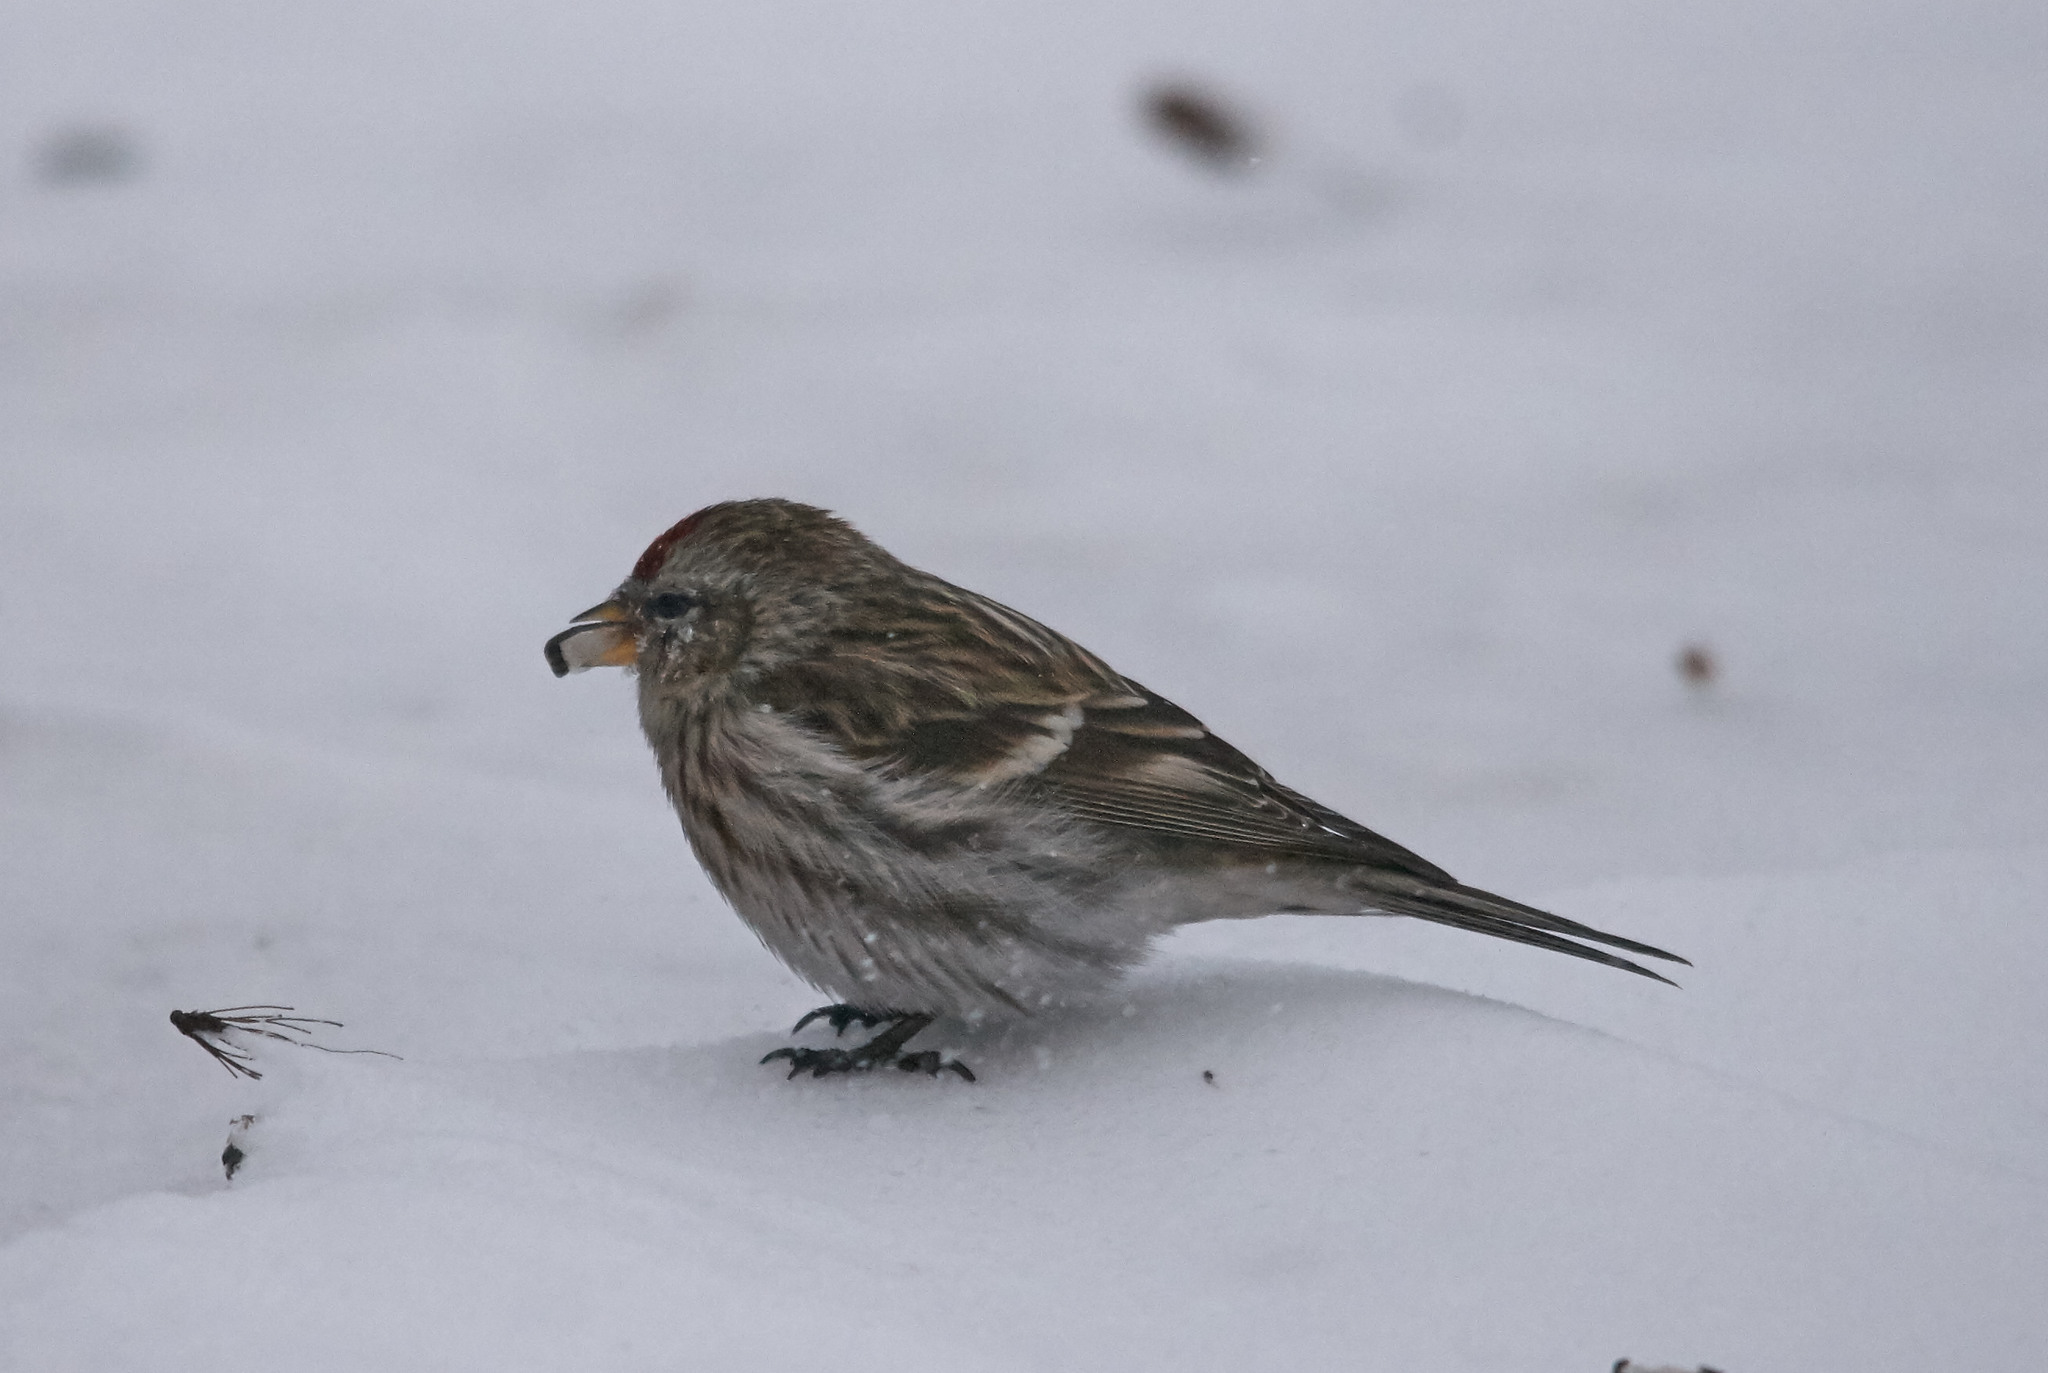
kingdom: Animalia
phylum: Chordata
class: Aves
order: Passeriformes
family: Fringillidae
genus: Acanthis
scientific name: Acanthis flammea
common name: Common redpoll
